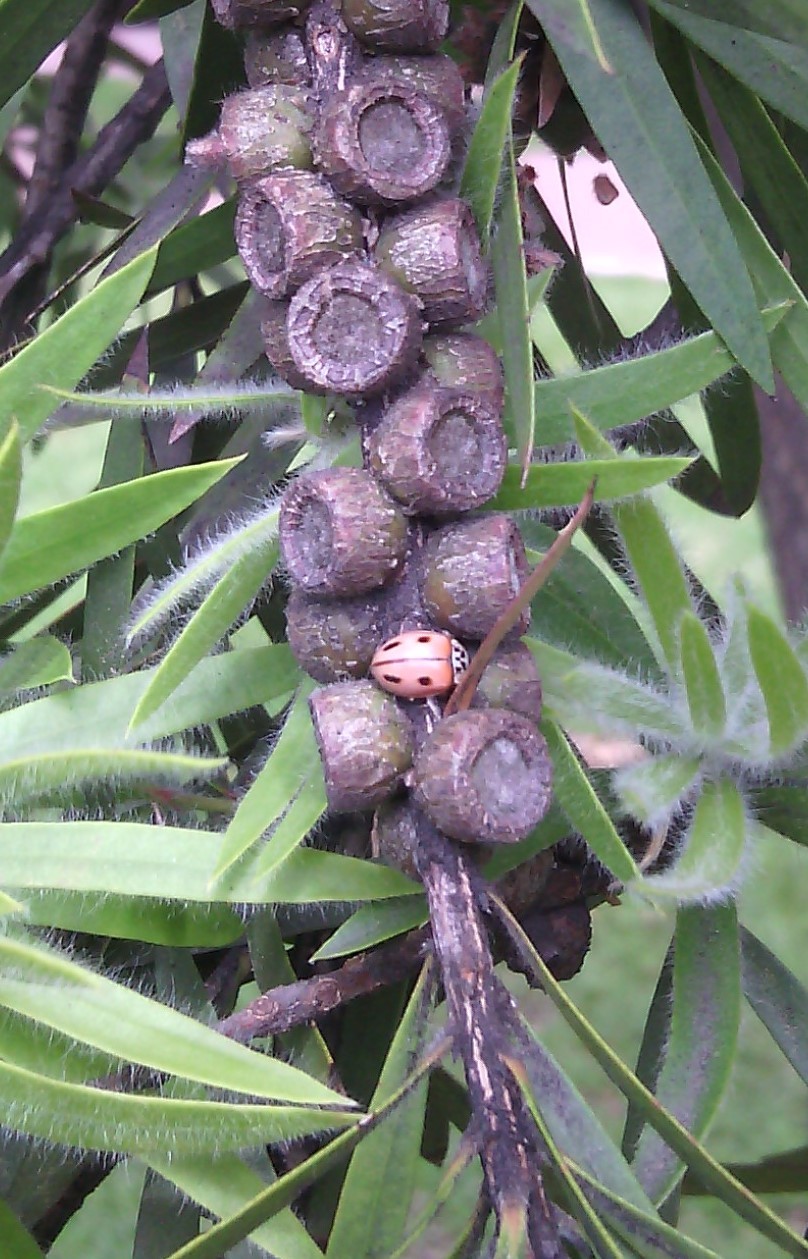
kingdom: Animalia
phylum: Arthropoda
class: Insecta
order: Coleoptera
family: Coccinellidae
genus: Mulsantina
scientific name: Mulsantina
